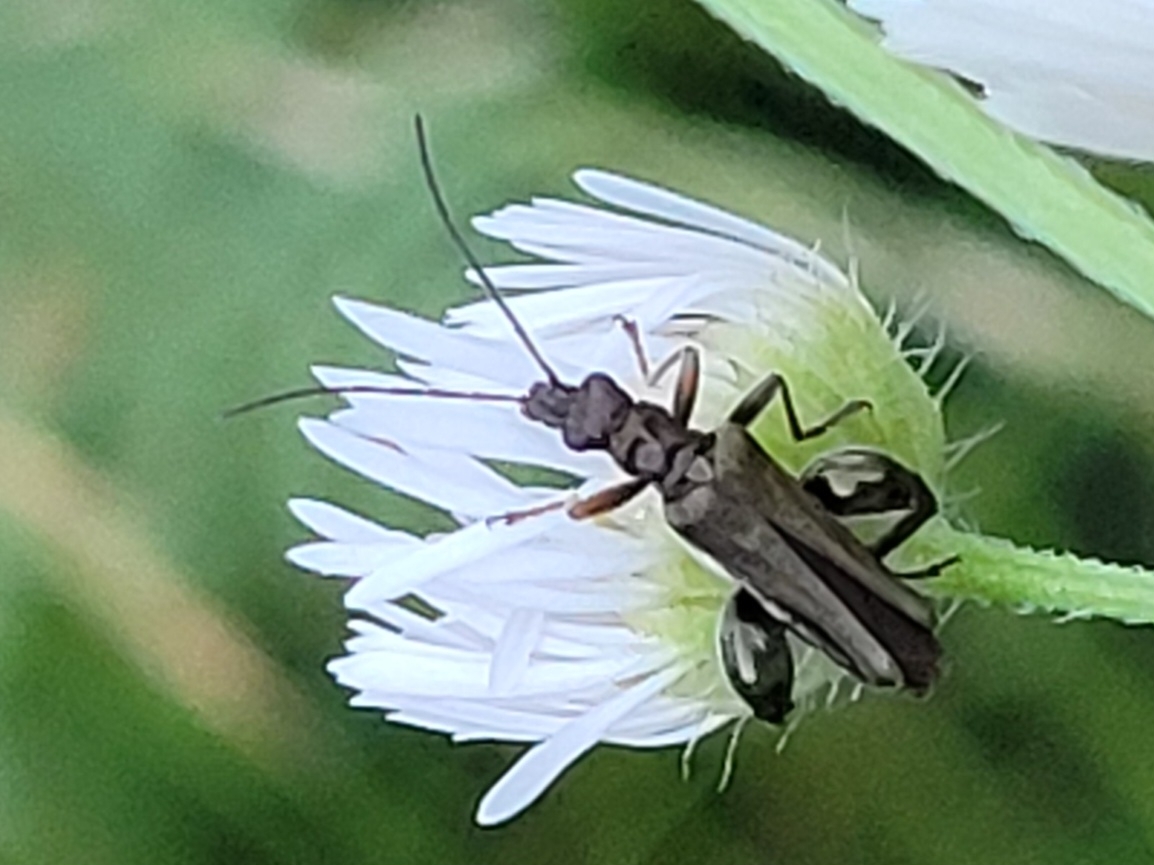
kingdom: Animalia
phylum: Arthropoda
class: Insecta
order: Coleoptera
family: Oedemeridae
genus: Oedemera
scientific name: Oedemera flavipes
